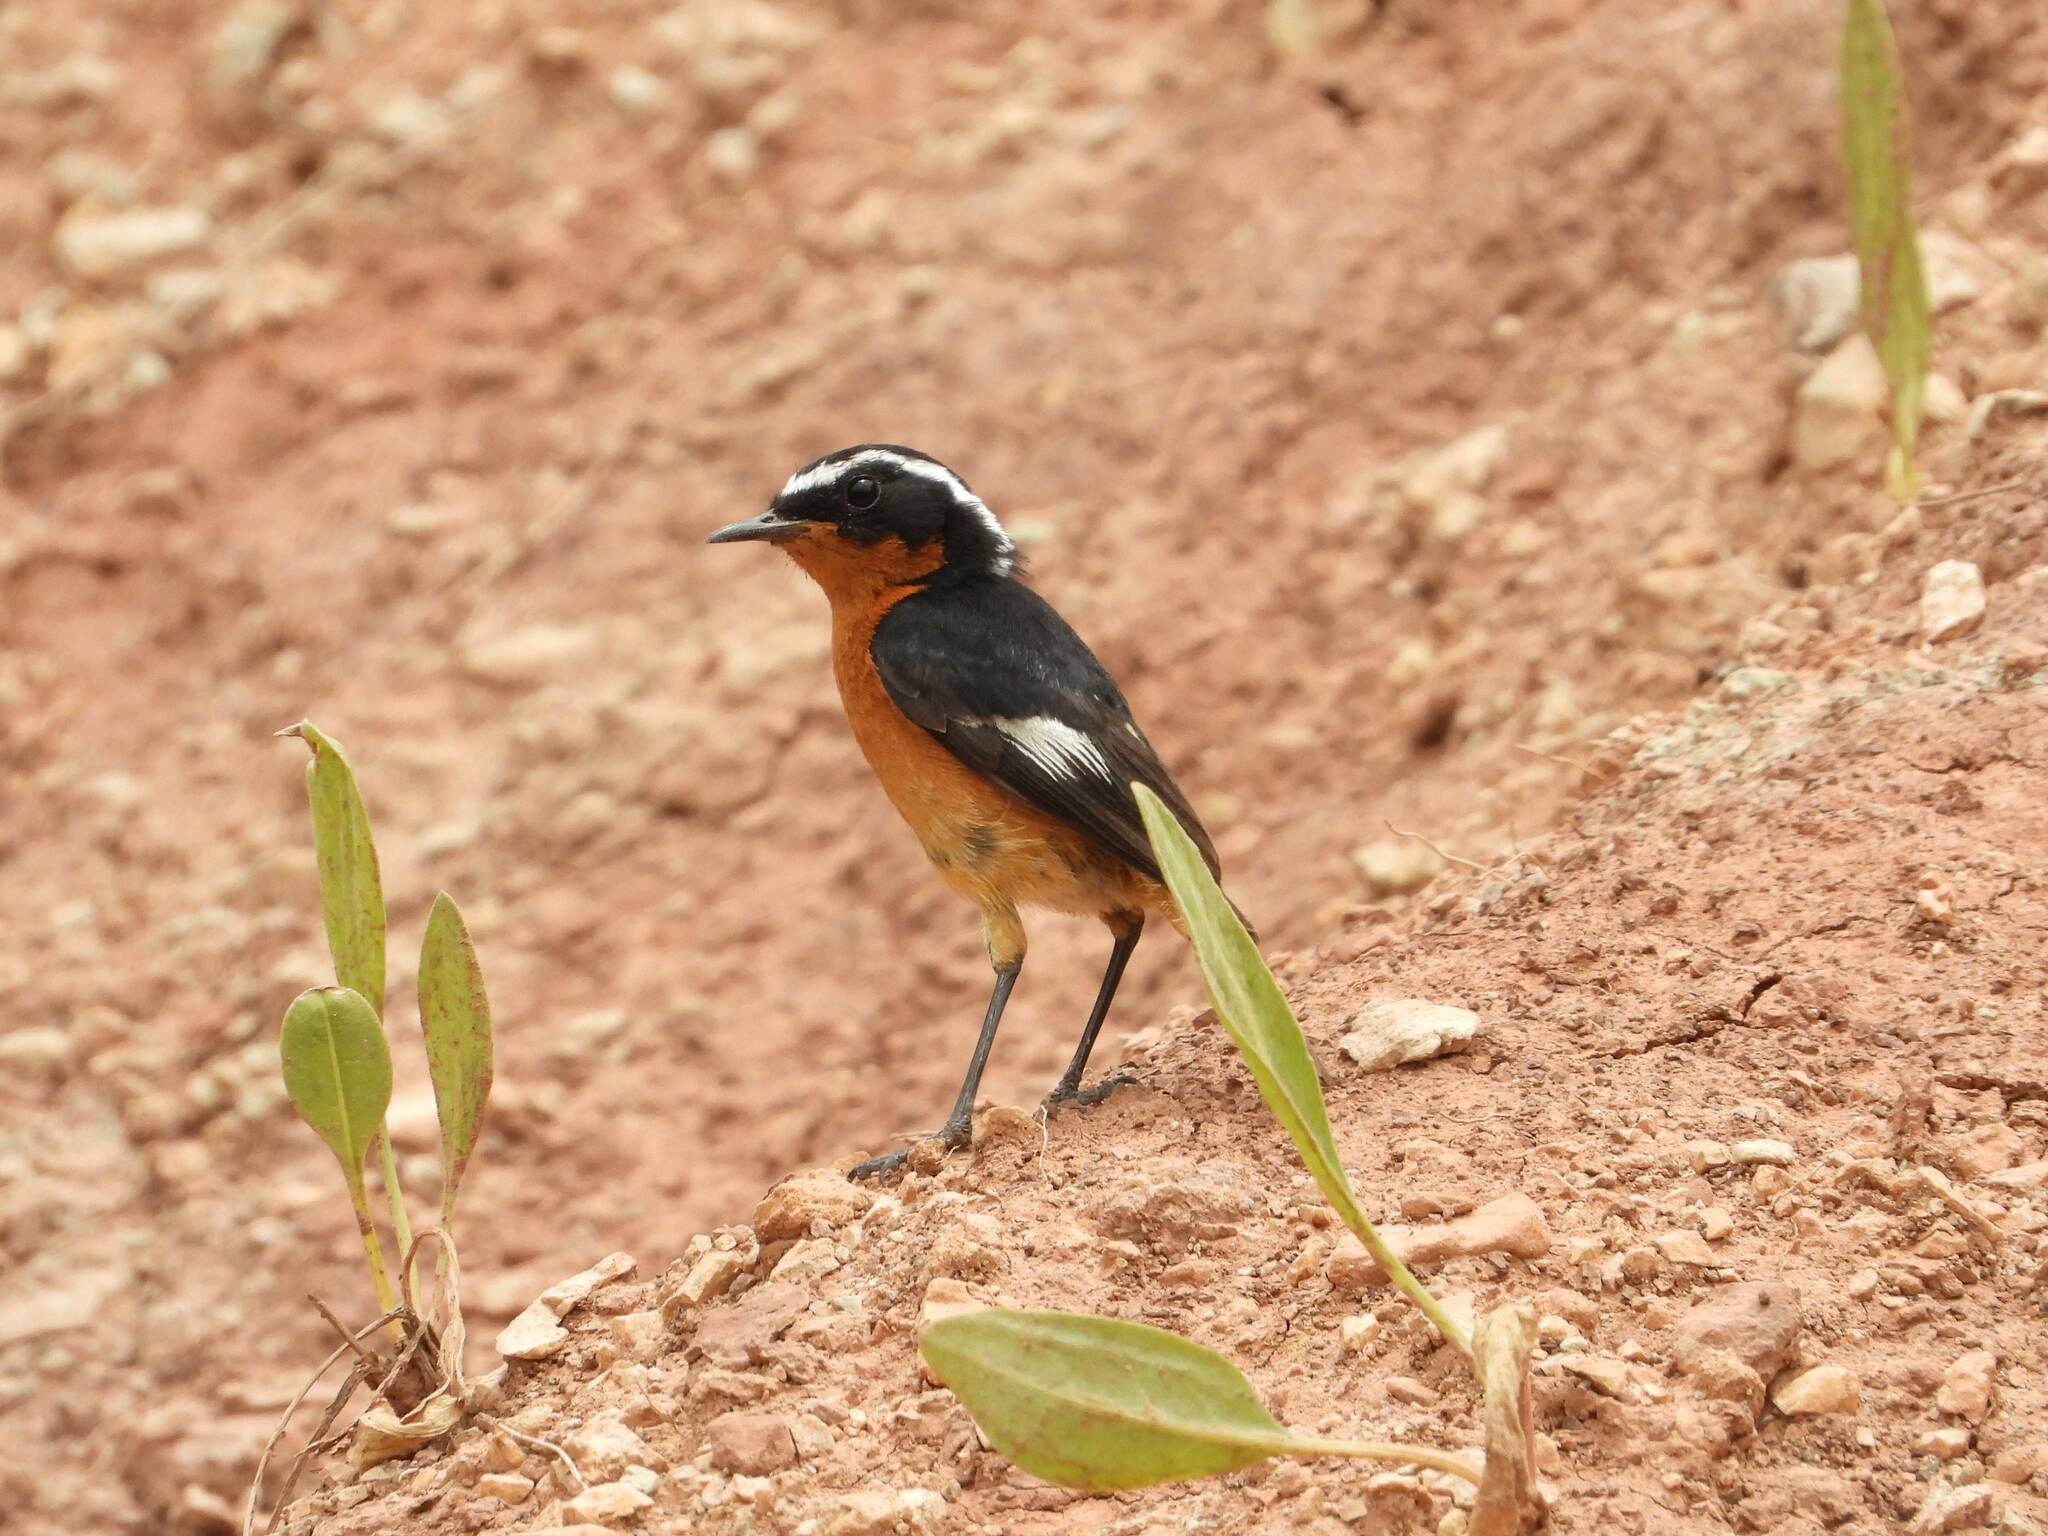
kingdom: Animalia
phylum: Chordata
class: Aves
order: Passeriformes
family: Muscicapidae
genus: Phoenicurus
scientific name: Phoenicurus moussieri
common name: Moussier's redstart
